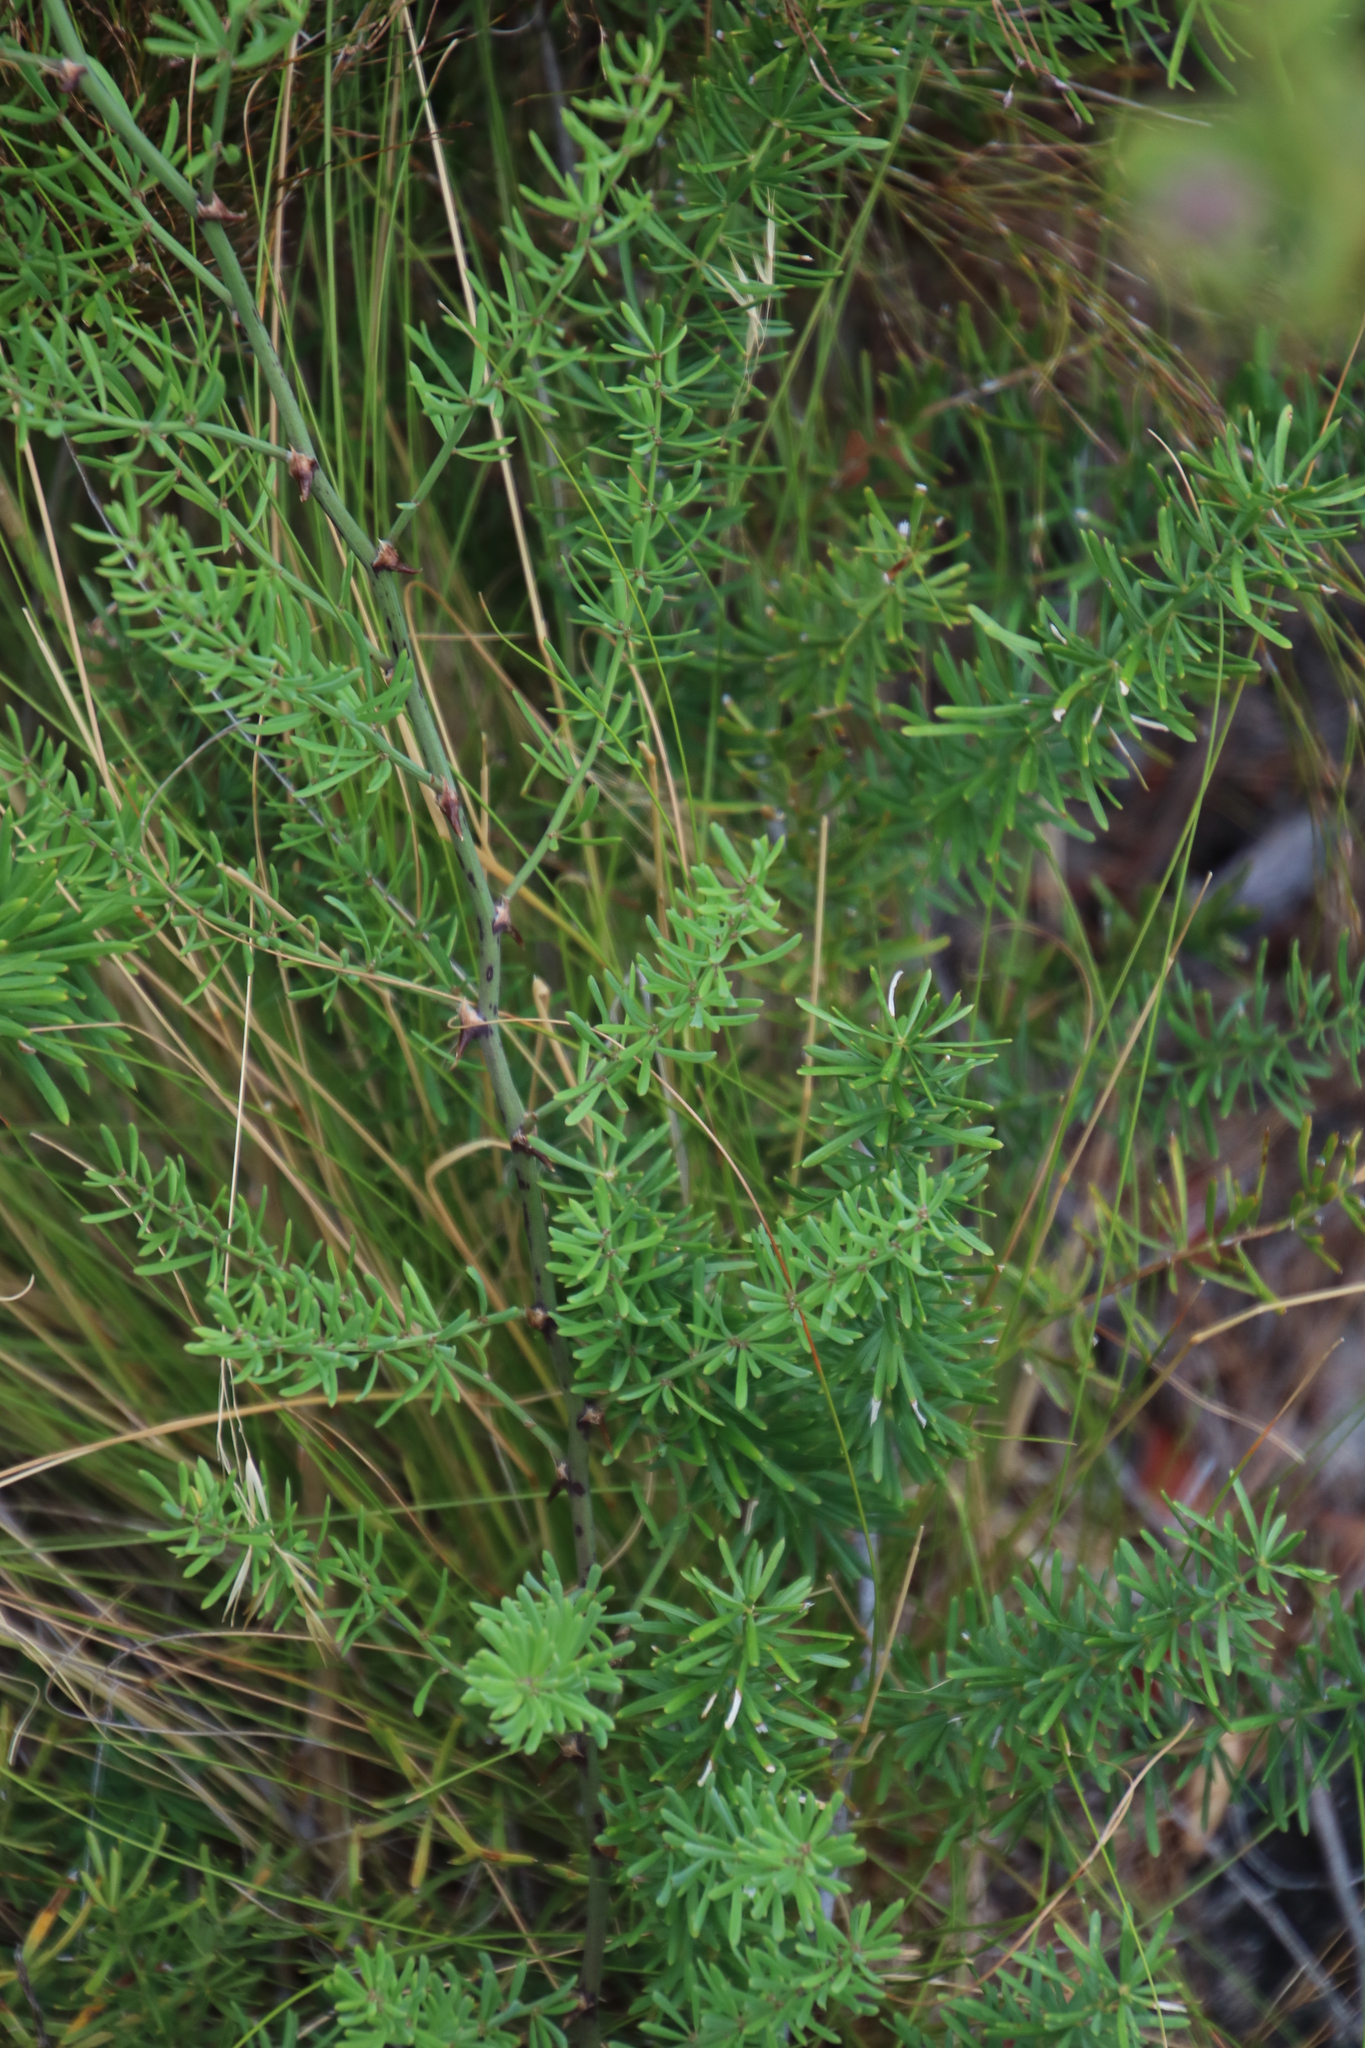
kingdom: Plantae
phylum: Tracheophyta
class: Liliopsida
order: Asparagales
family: Asparagaceae
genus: Asparagus
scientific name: Asparagus aethiopicus
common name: Sprenger's asparagus fern
